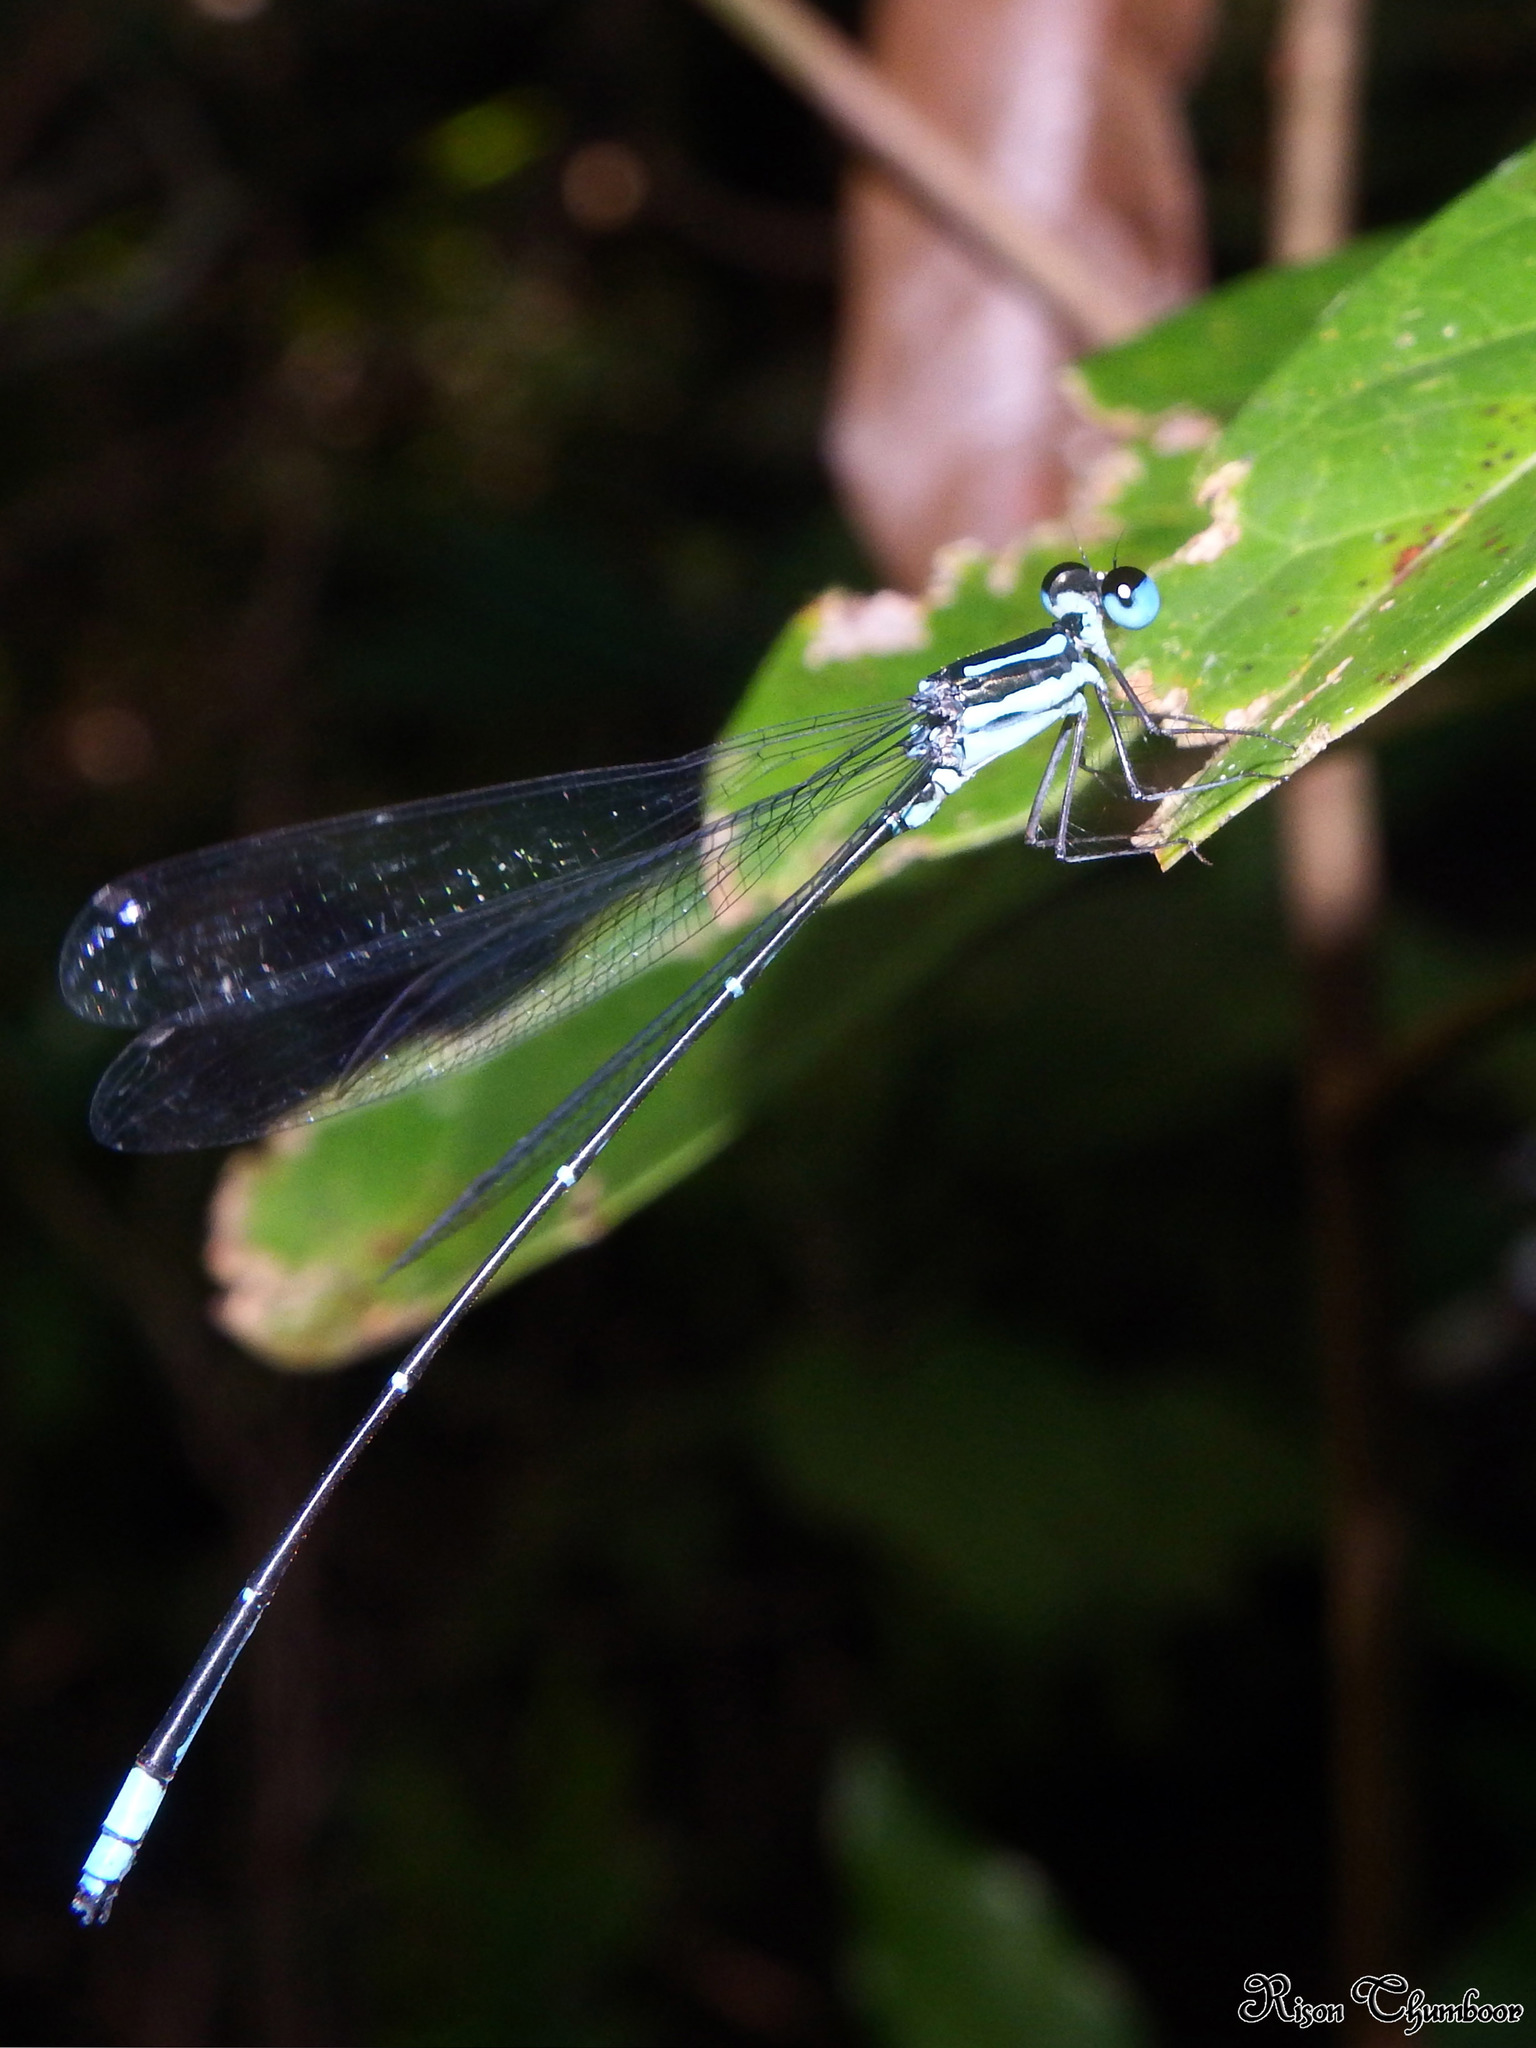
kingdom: Animalia
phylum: Arthropoda
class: Insecta
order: Odonata
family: Platycnemididae
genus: Esme
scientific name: Esme longistyla
